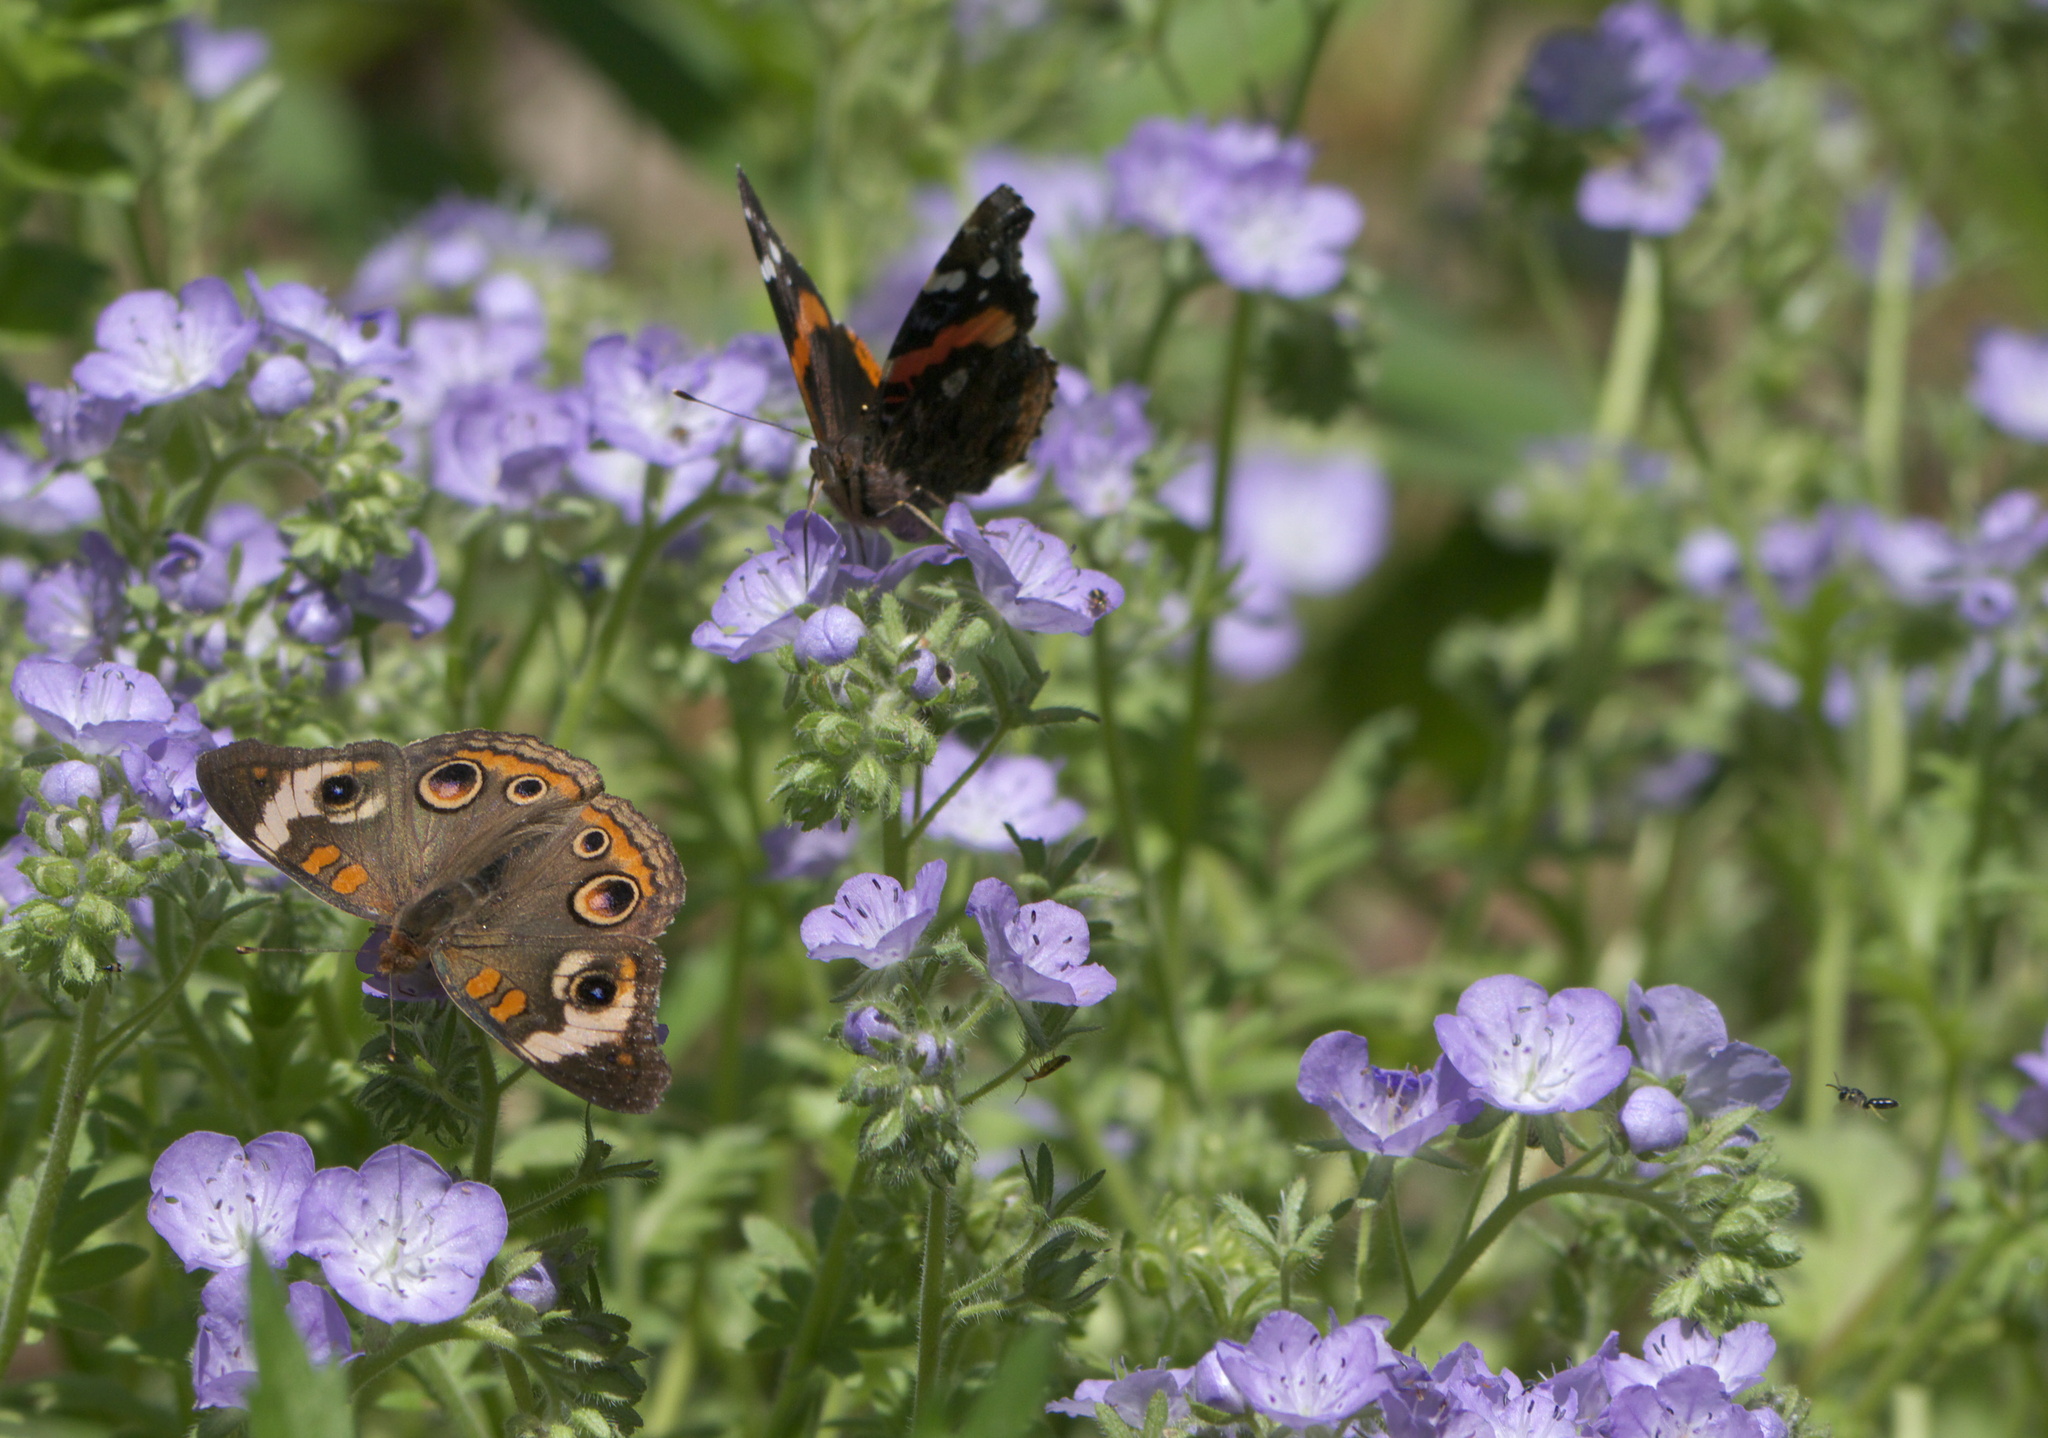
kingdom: Animalia
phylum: Arthropoda
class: Insecta
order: Lepidoptera
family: Nymphalidae
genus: Junonia
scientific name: Junonia coenia
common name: Common buckeye
